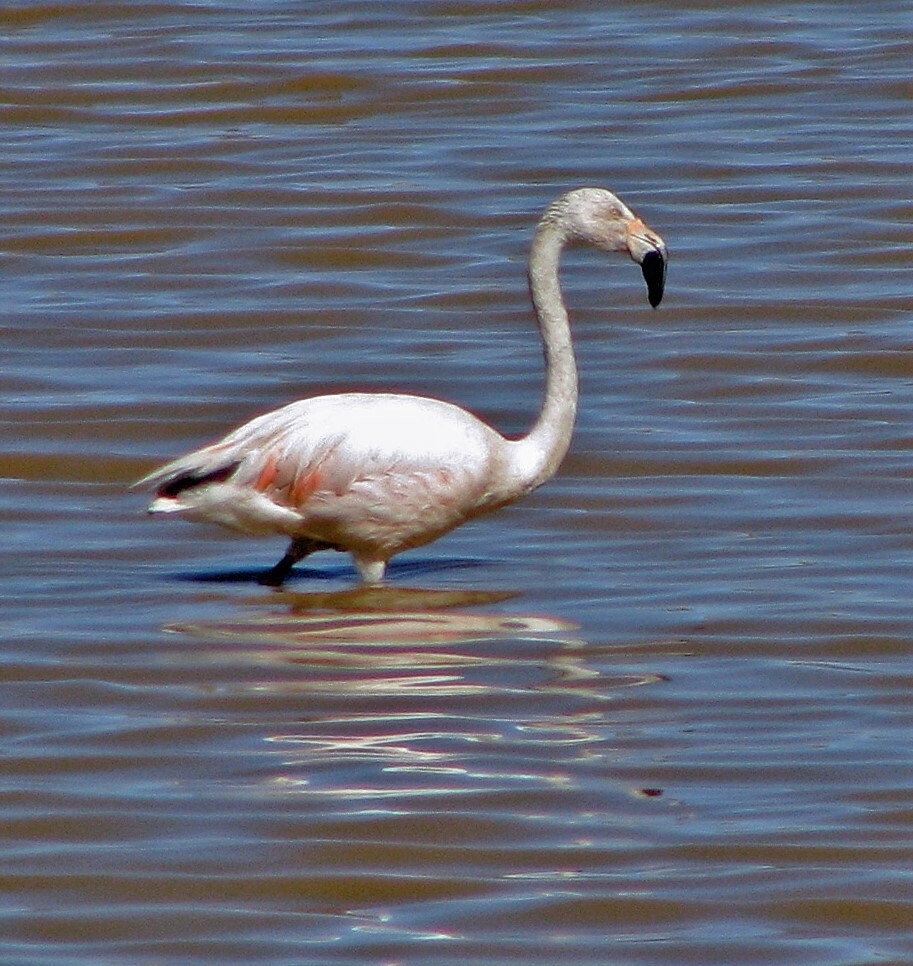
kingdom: Animalia
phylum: Chordata
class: Aves
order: Phoenicopteriformes
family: Phoenicopteridae
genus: Phoenicopterus
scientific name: Phoenicopterus chilensis
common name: Chilean flamingo
